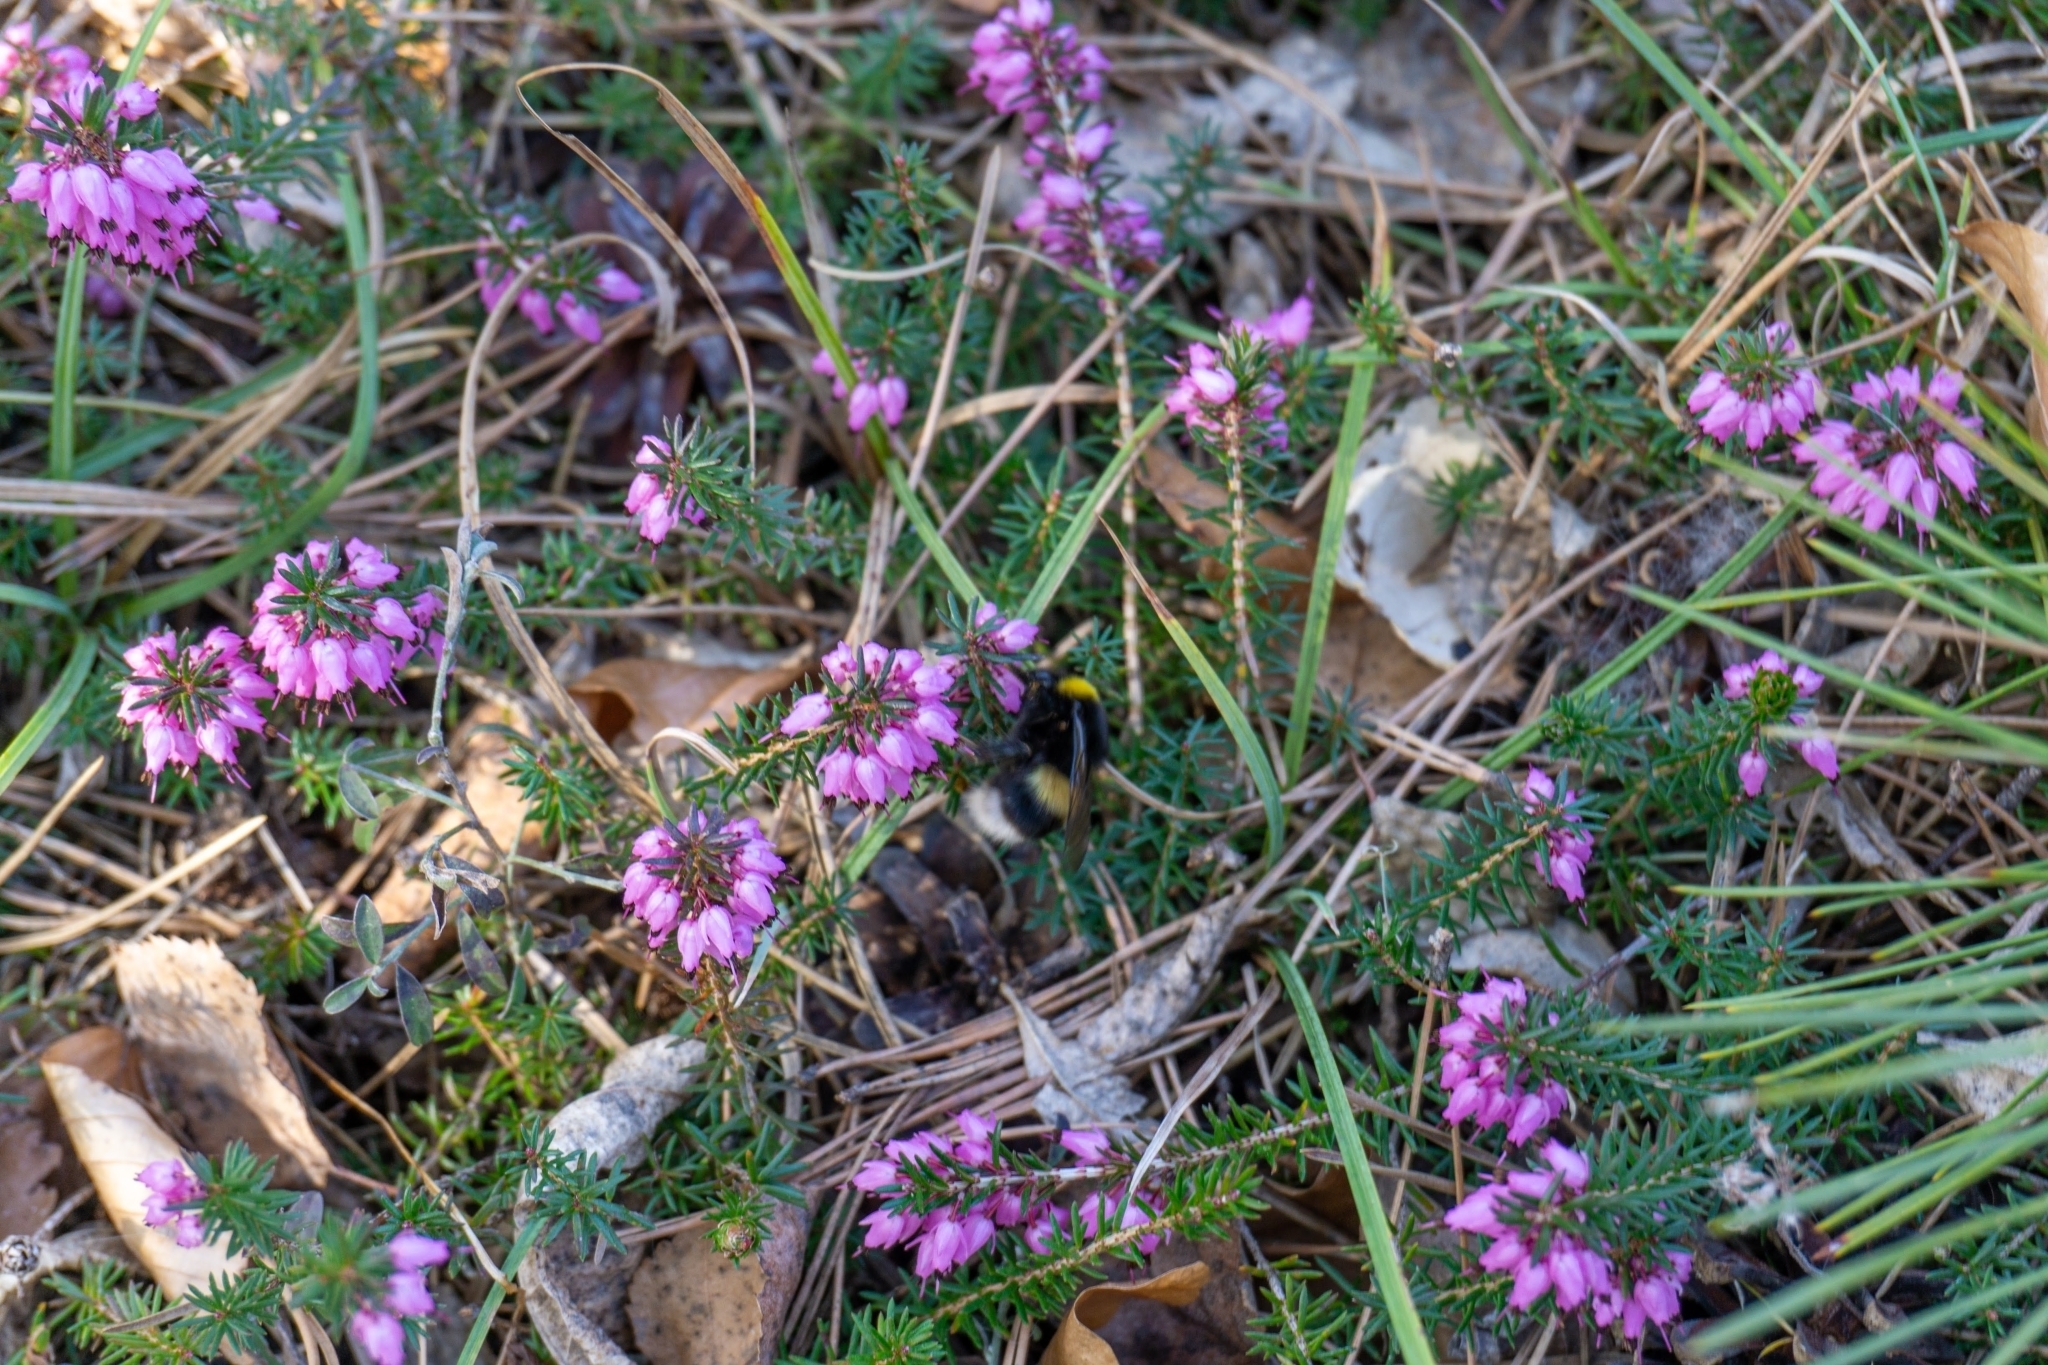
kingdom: Plantae
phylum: Tracheophyta
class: Magnoliopsida
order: Ericales
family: Ericaceae
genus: Erica
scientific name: Erica carnea
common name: Winter heath
